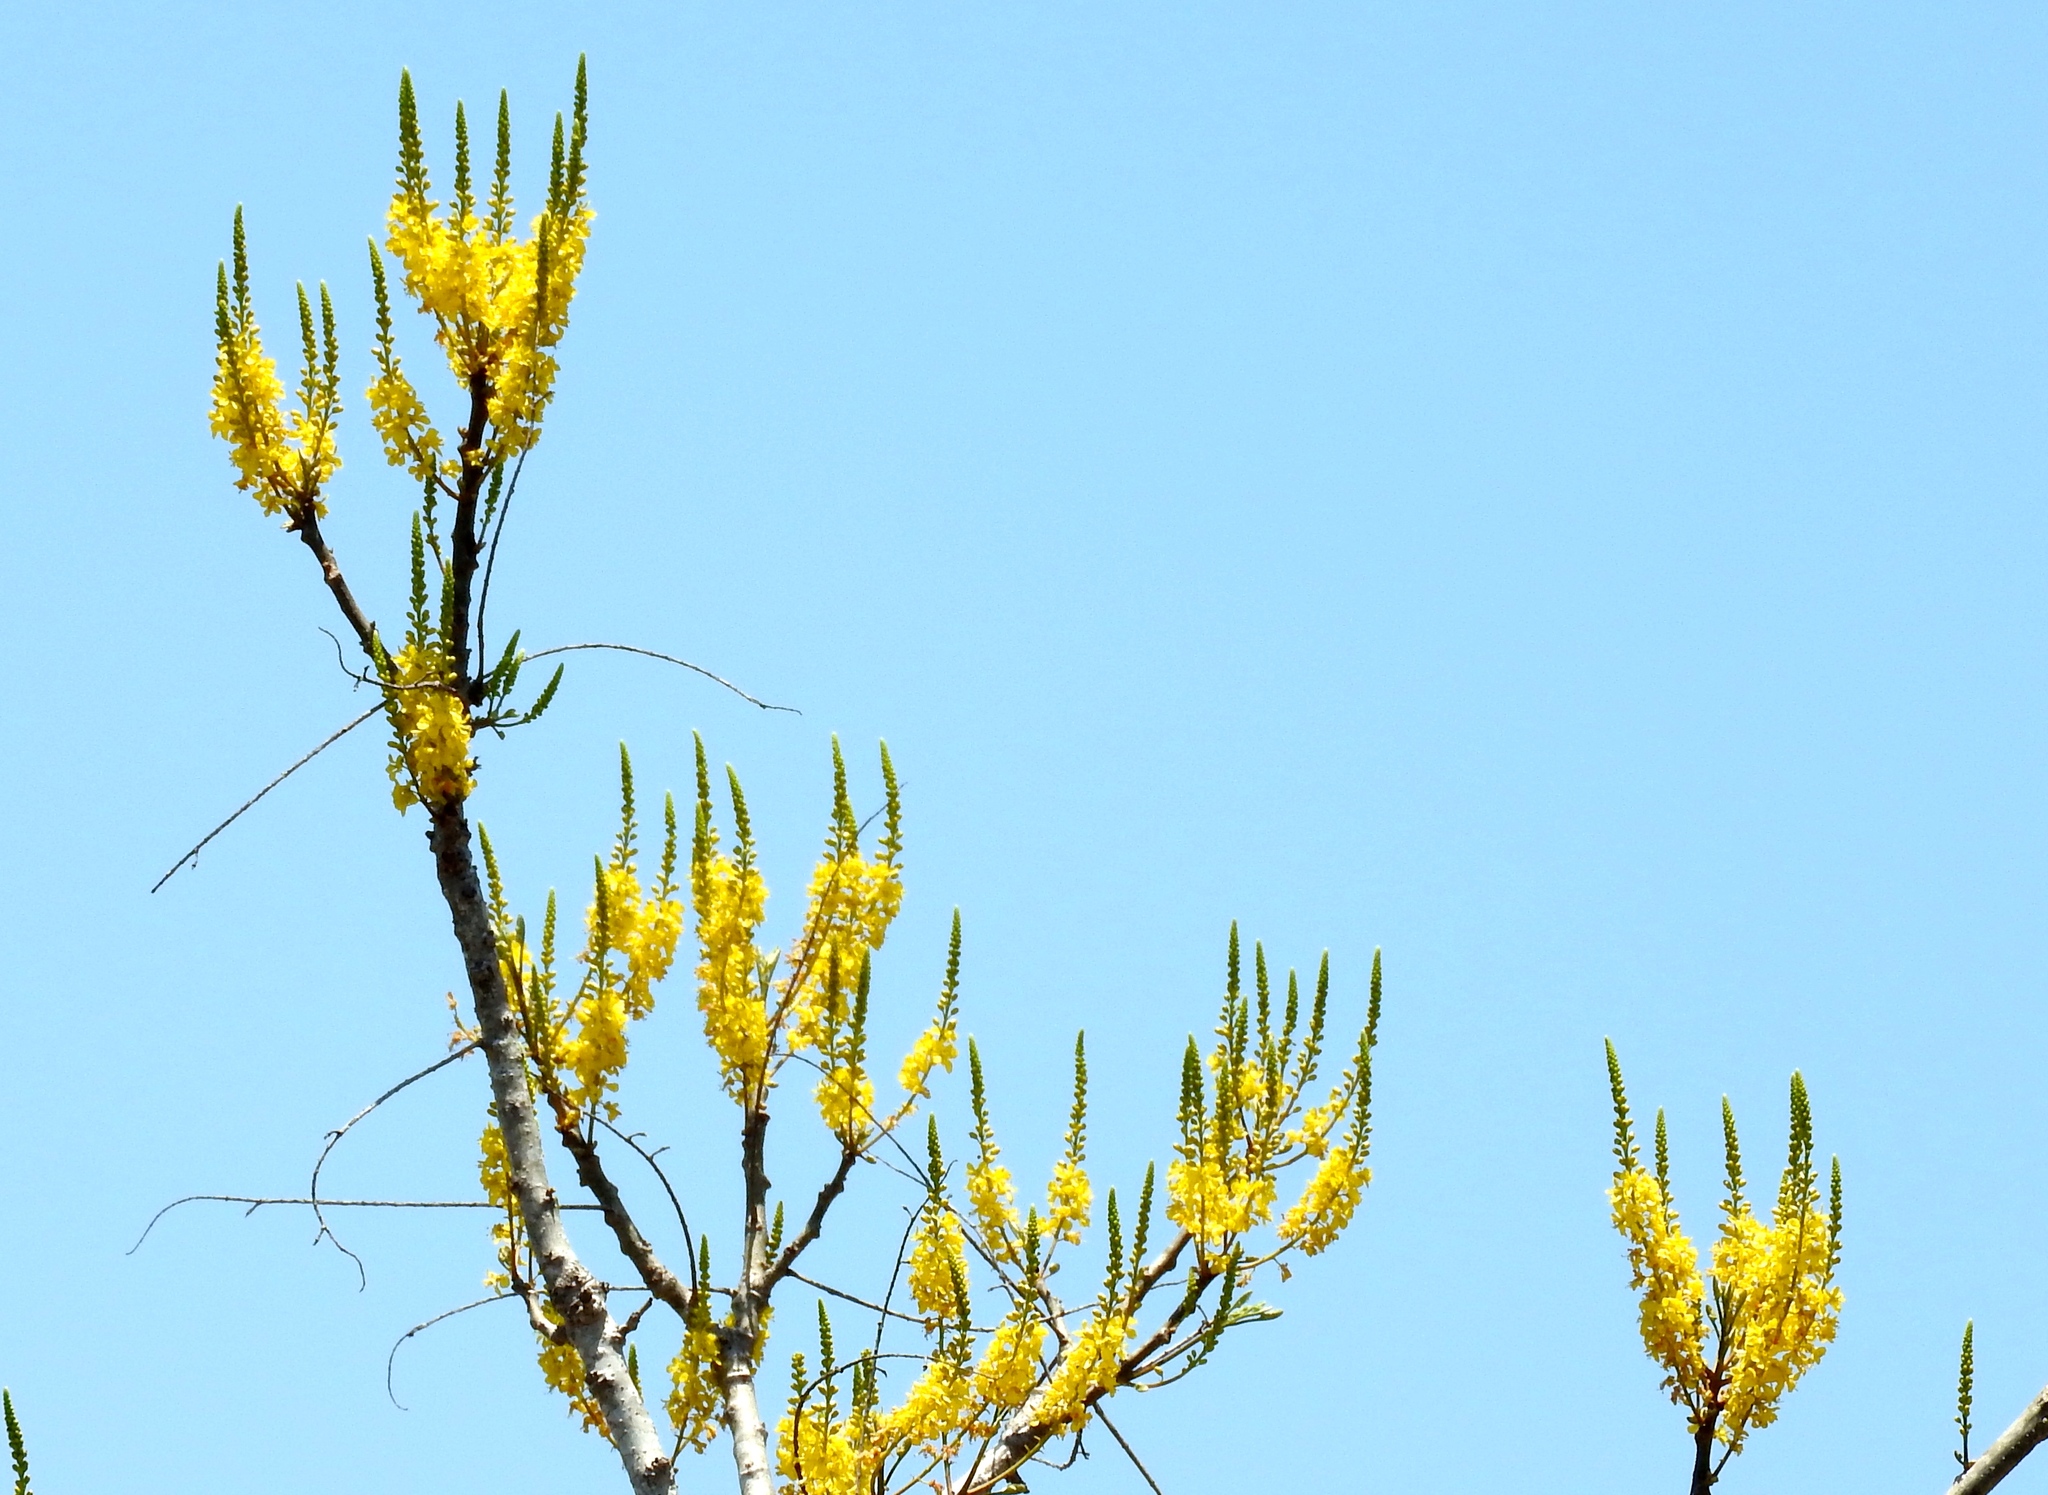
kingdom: Plantae
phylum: Tracheophyta
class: Magnoliopsida
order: Fabales
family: Fabaceae
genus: Conzattia
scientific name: Conzattia sericea
